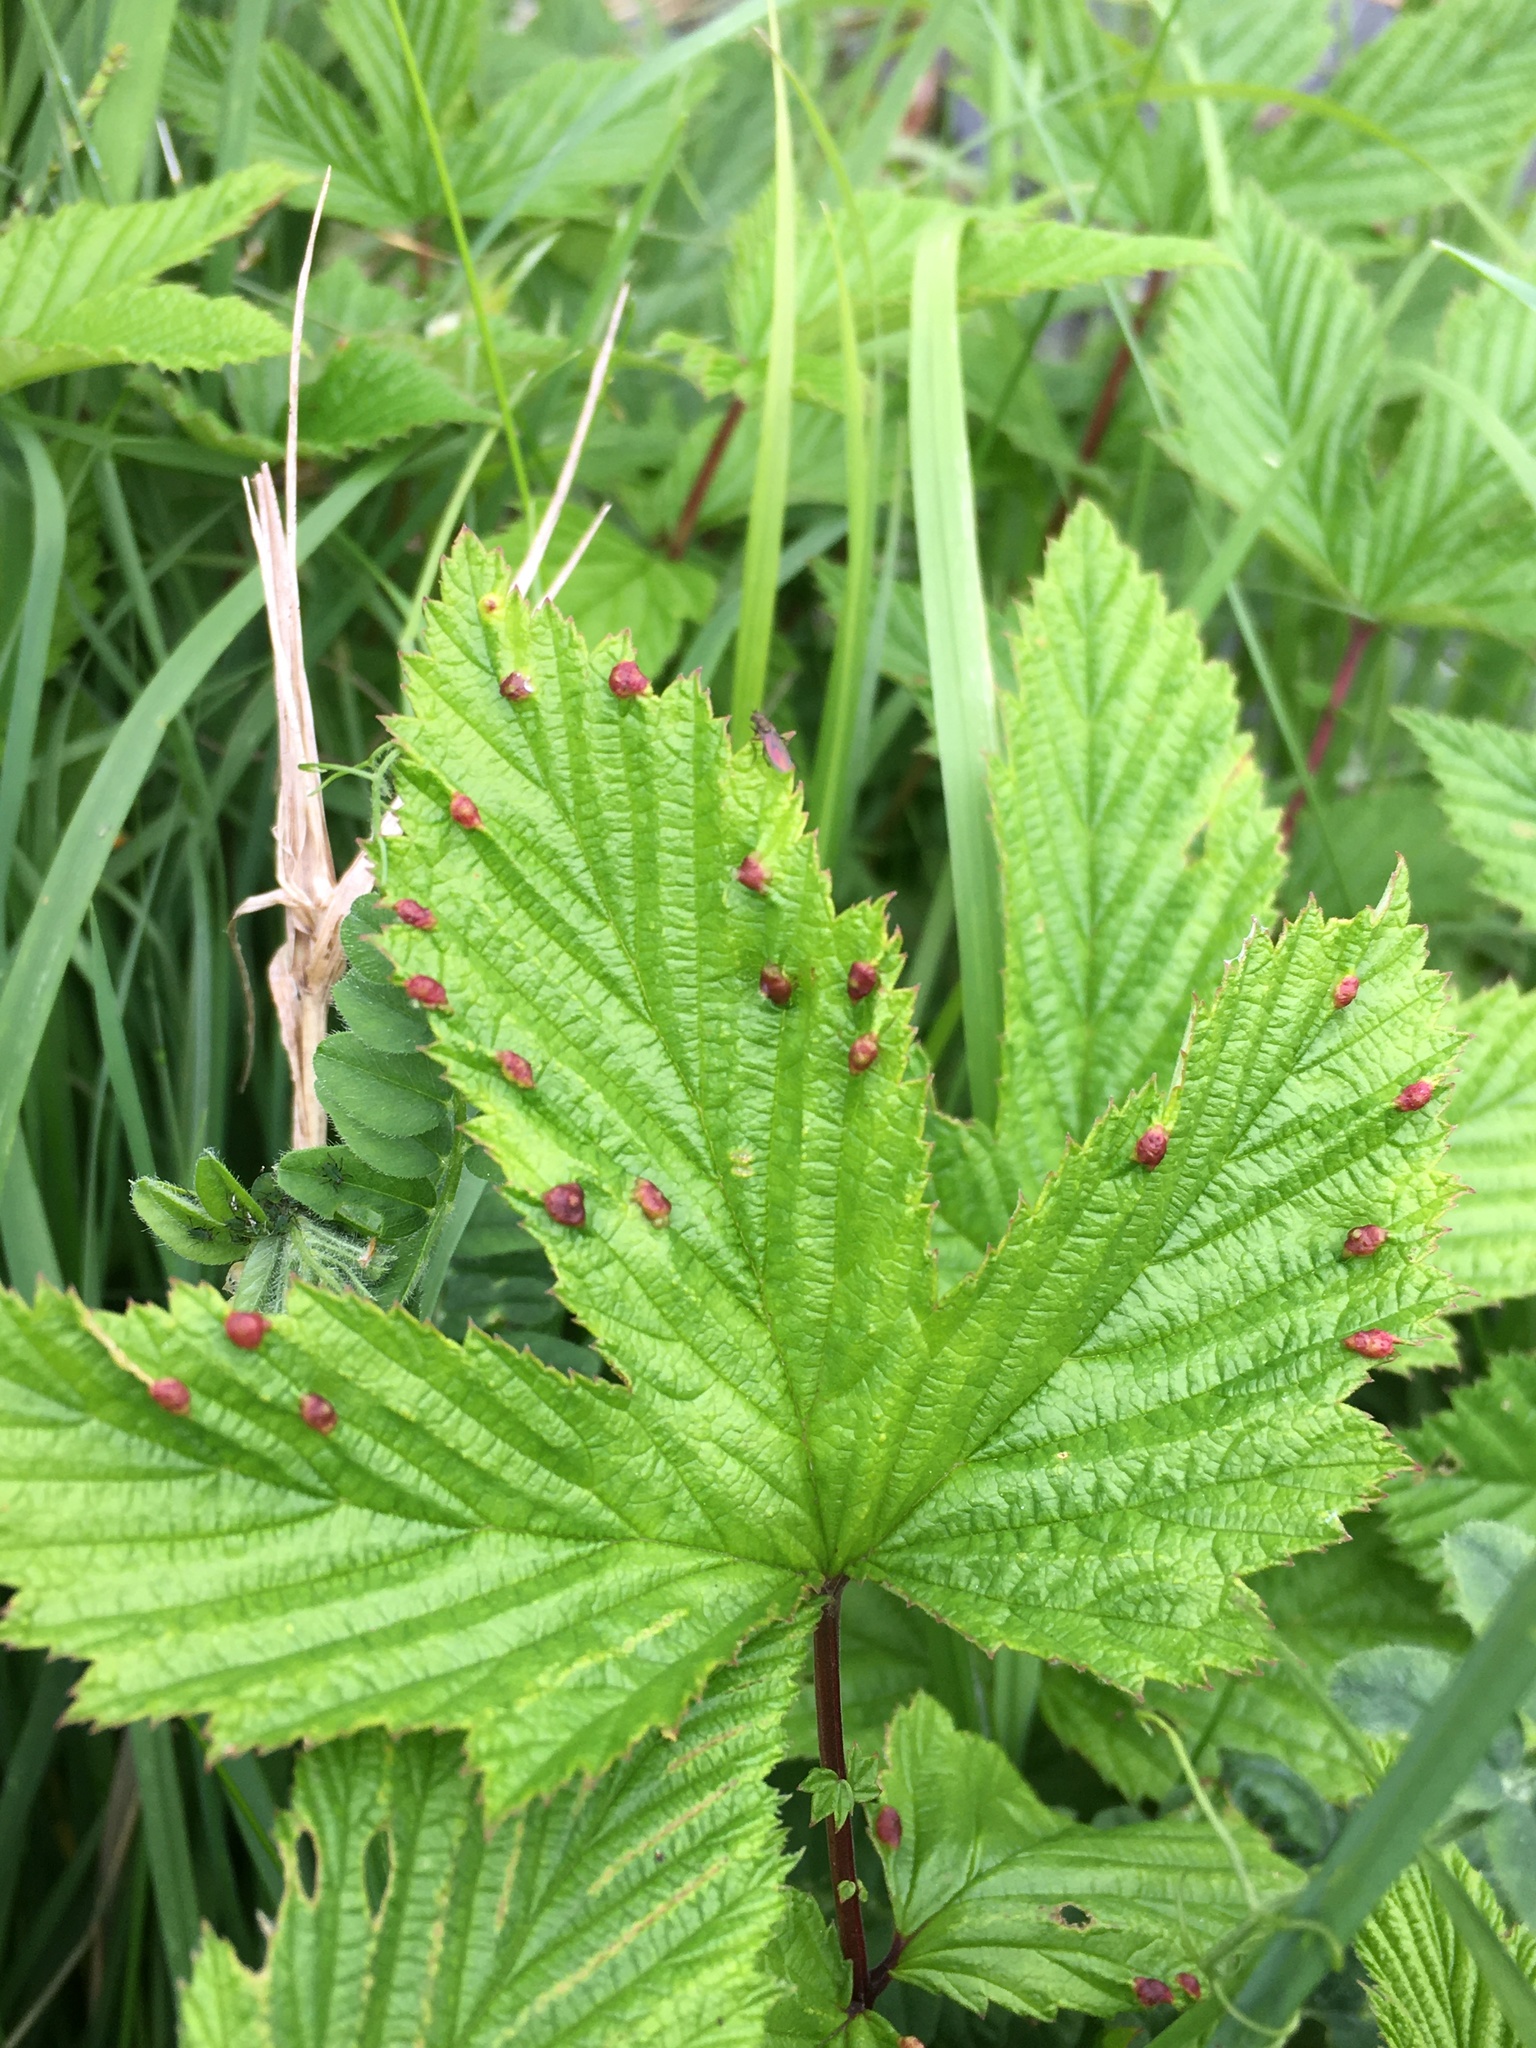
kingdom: Animalia
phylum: Arthropoda
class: Insecta
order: Diptera
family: Cecidomyiidae
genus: Dasineura
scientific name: Dasineura ulmaria
